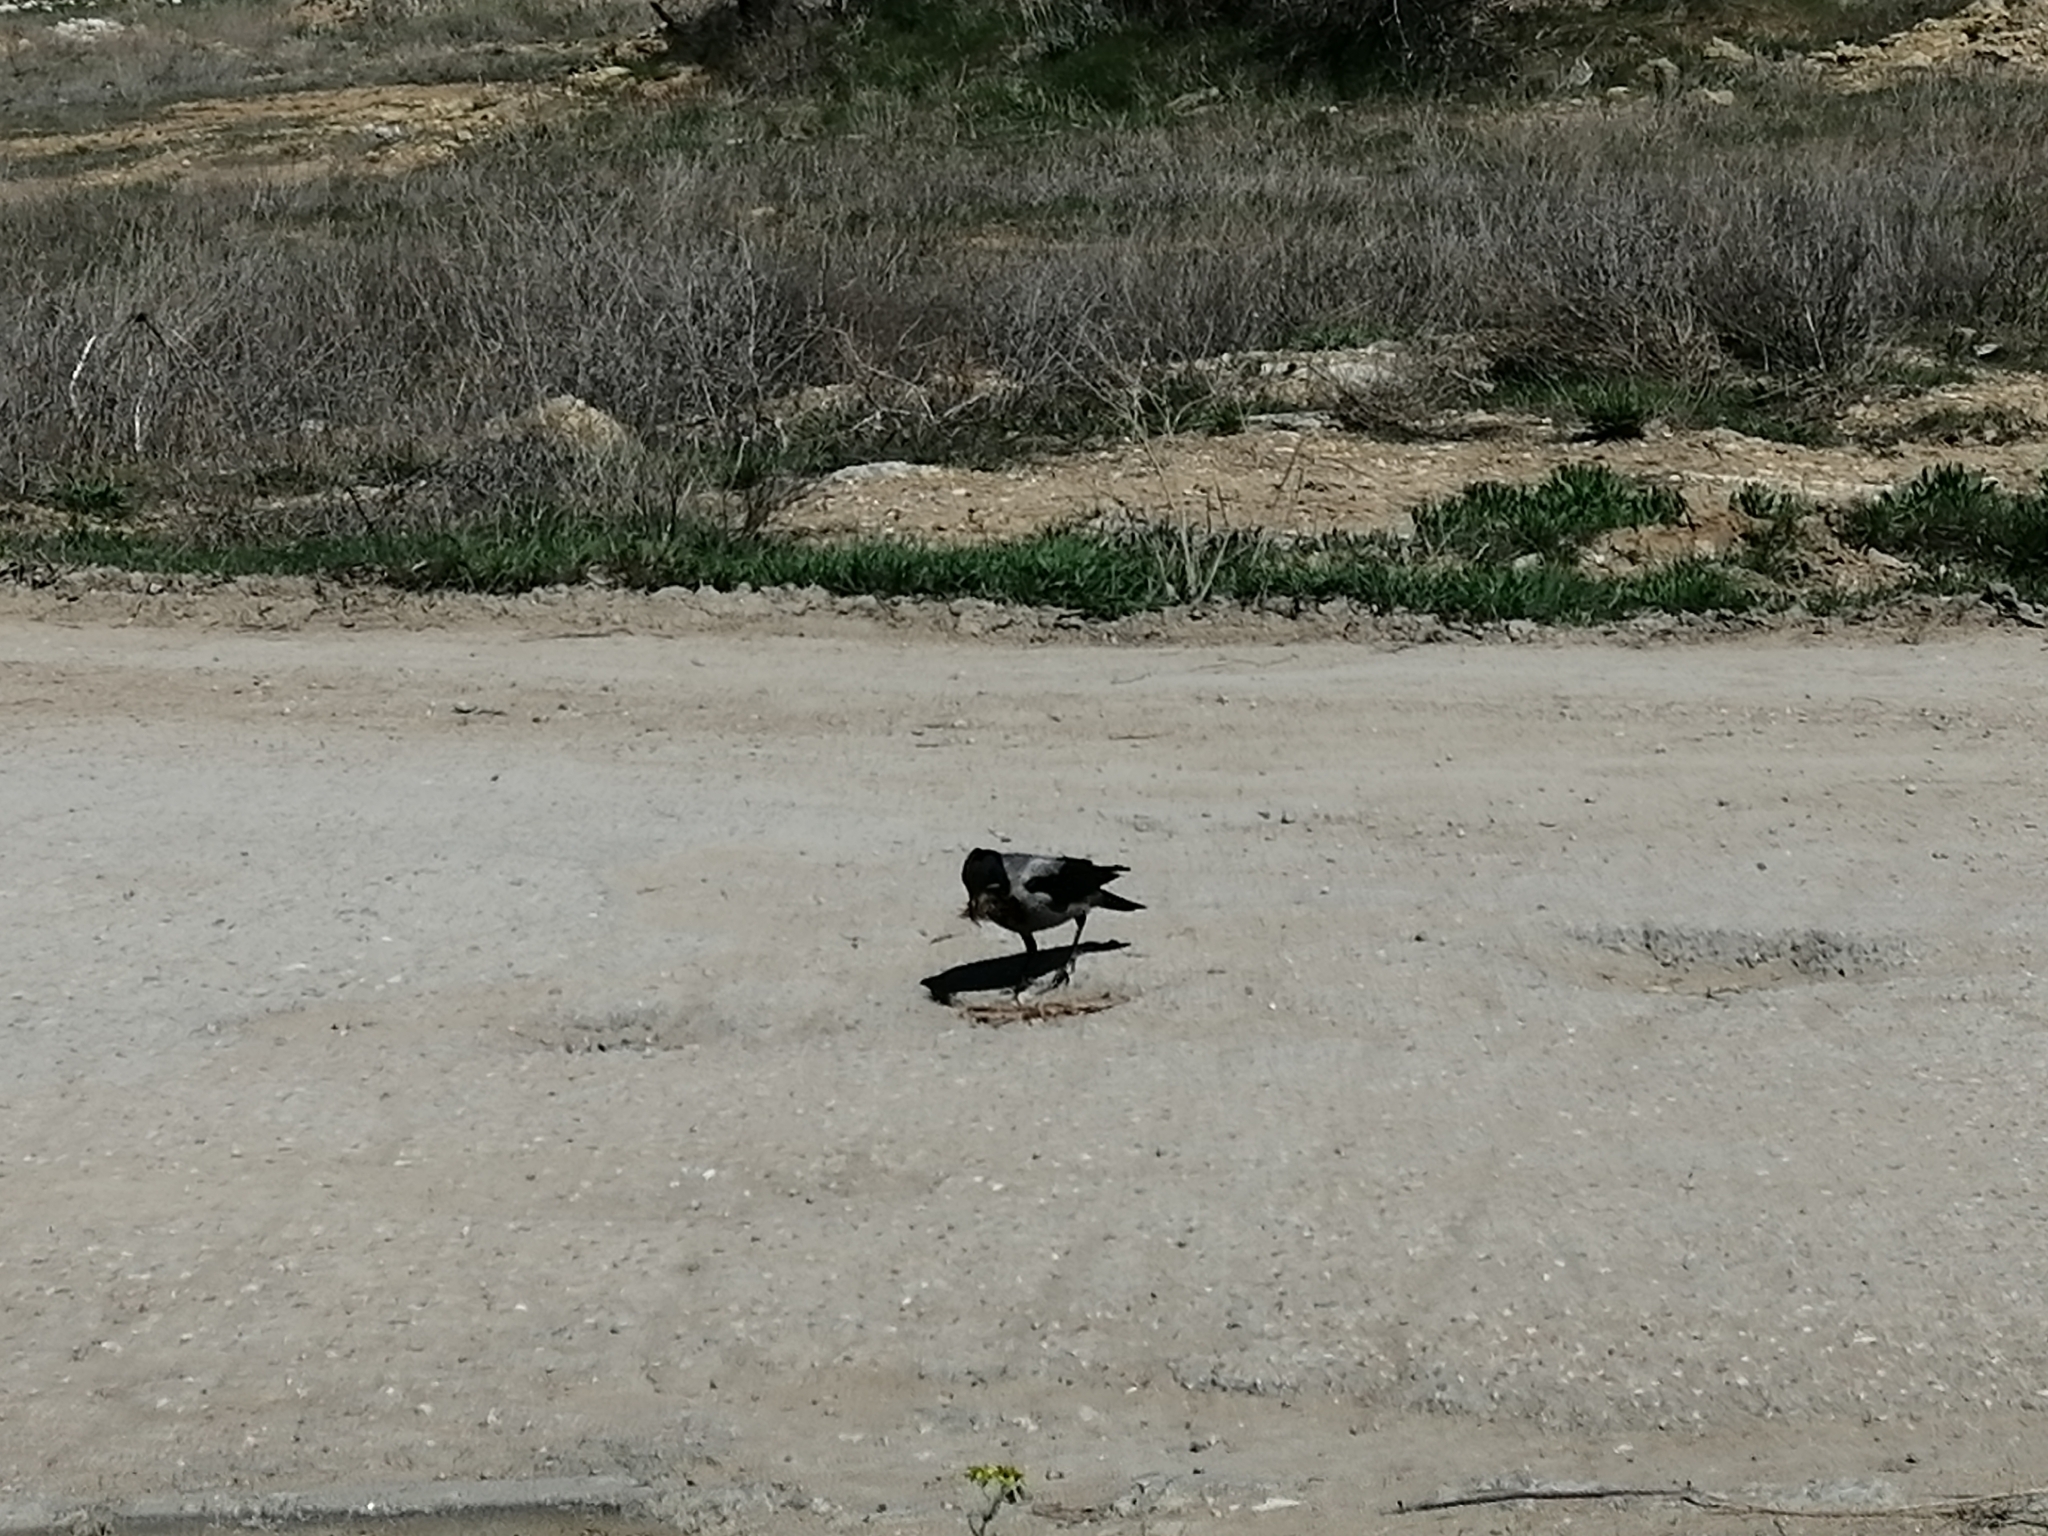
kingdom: Animalia
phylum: Chordata
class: Aves
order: Passeriformes
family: Corvidae
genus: Corvus
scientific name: Corvus cornix
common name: Hooded crow
